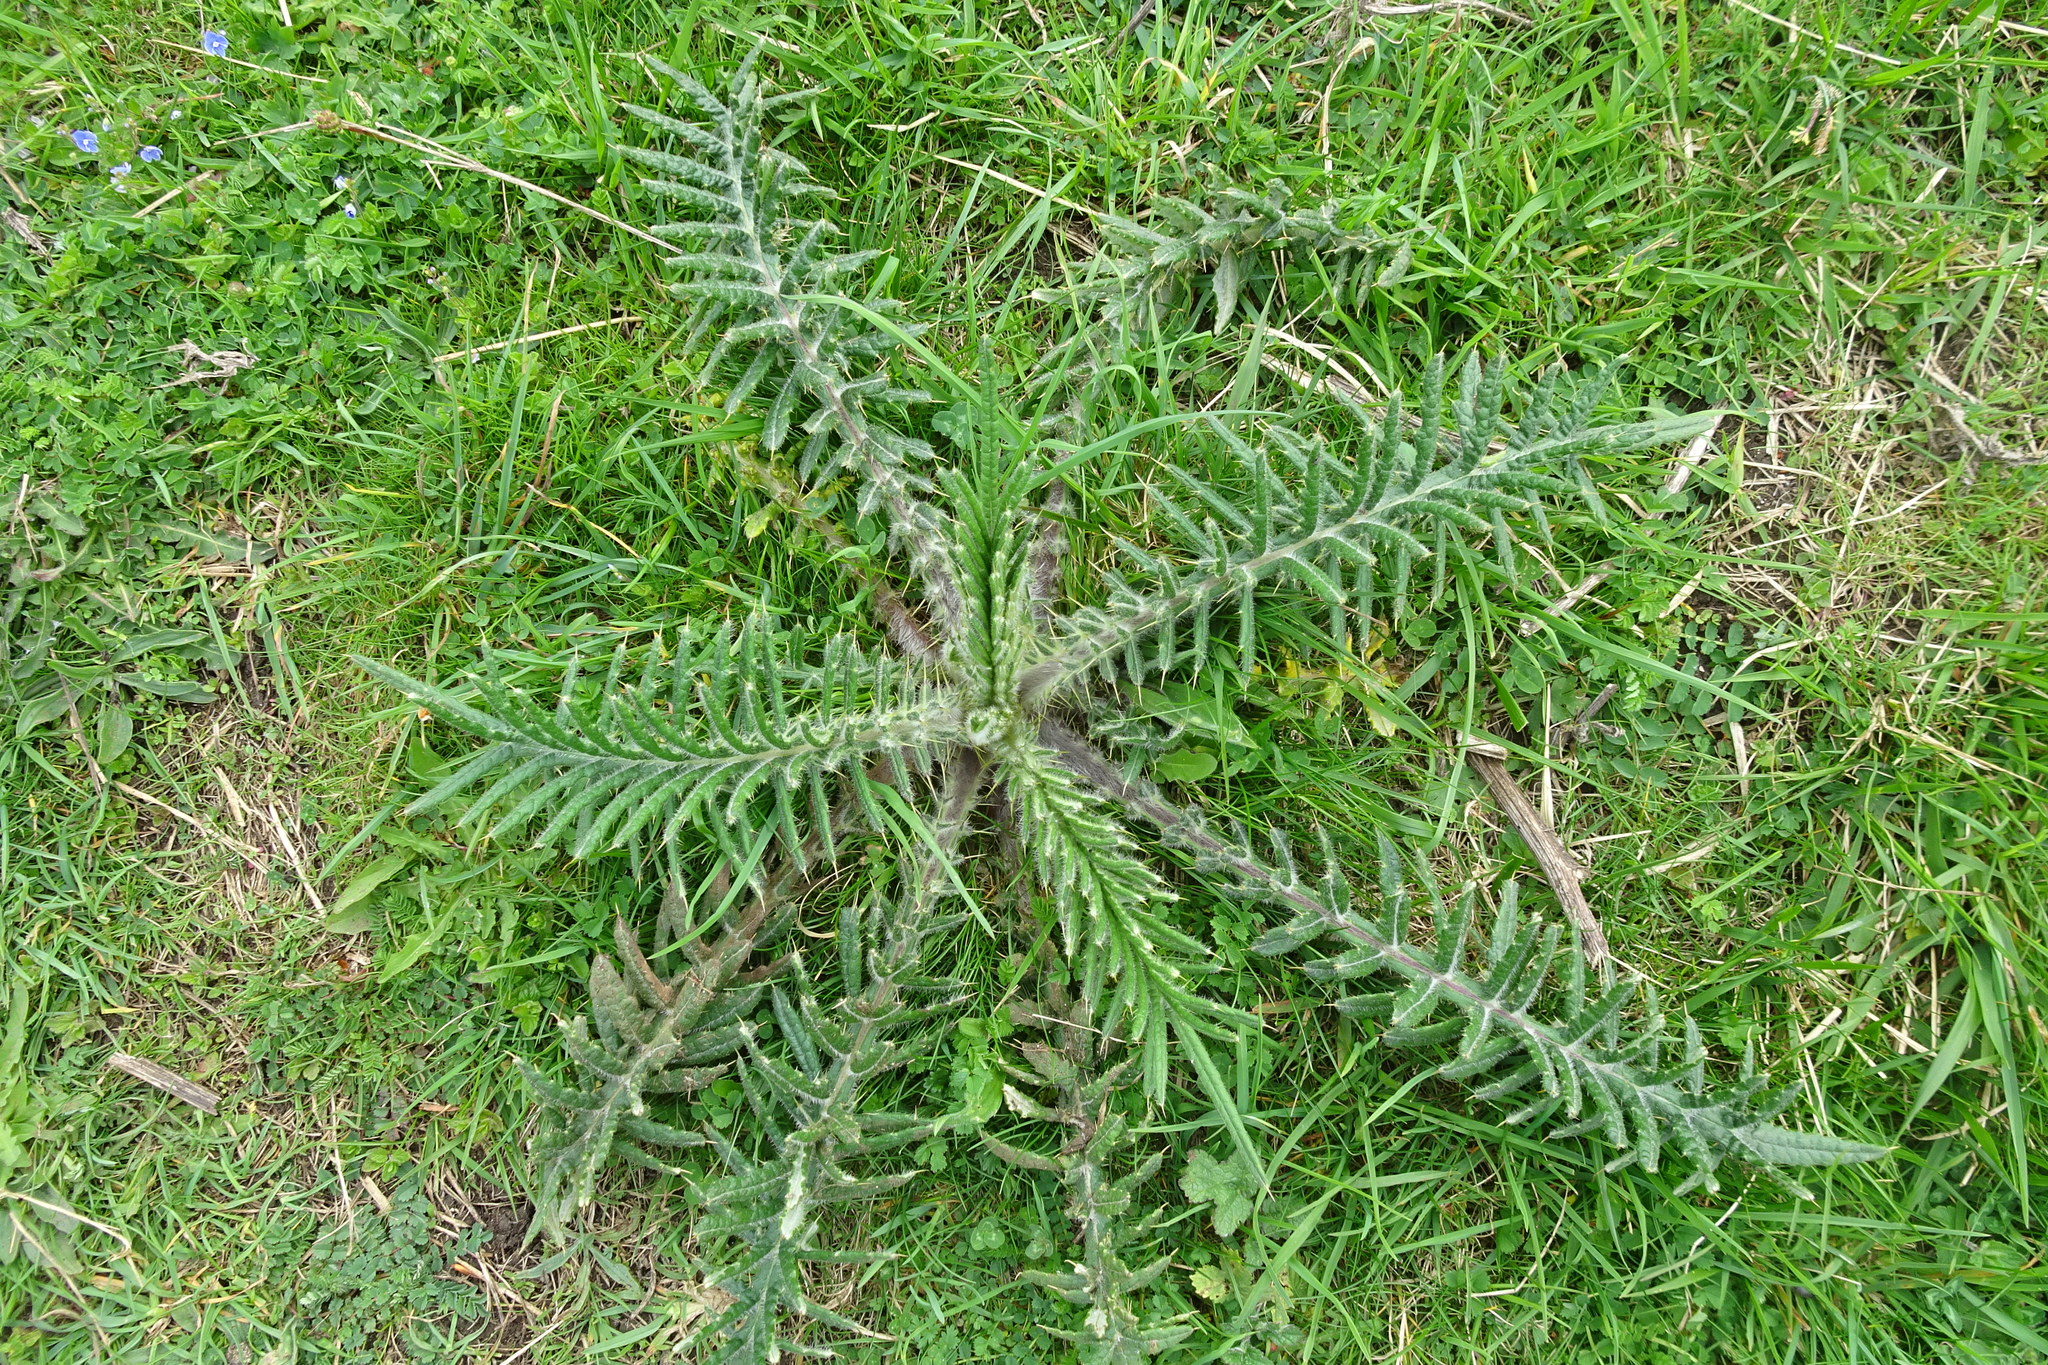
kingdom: Plantae
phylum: Tracheophyta
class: Magnoliopsida
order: Asterales
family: Asteraceae
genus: Lophiolepis
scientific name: Lophiolepis eriophora
